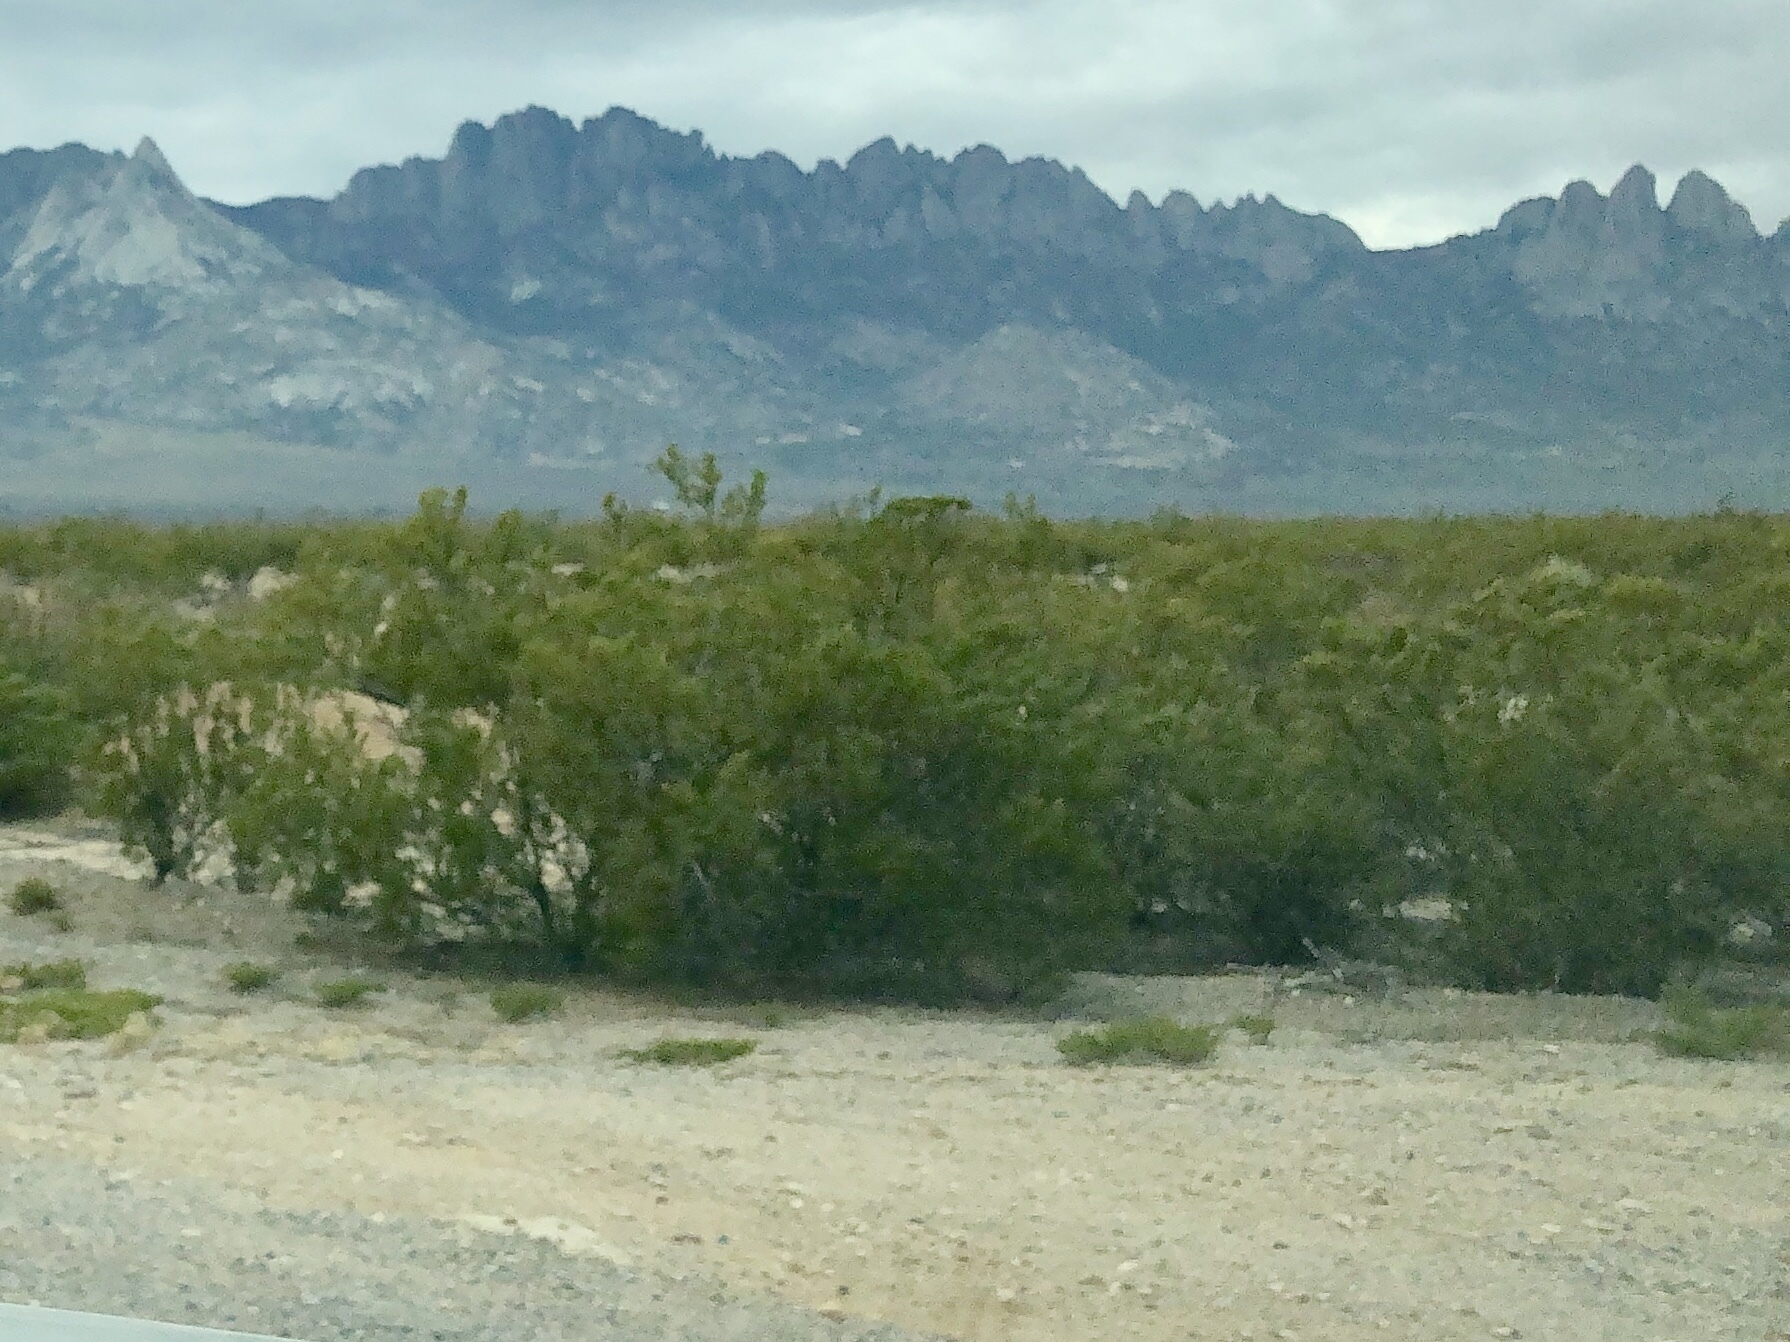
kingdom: Plantae
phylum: Tracheophyta
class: Magnoliopsida
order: Zygophyllales
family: Zygophyllaceae
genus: Larrea
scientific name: Larrea tridentata
